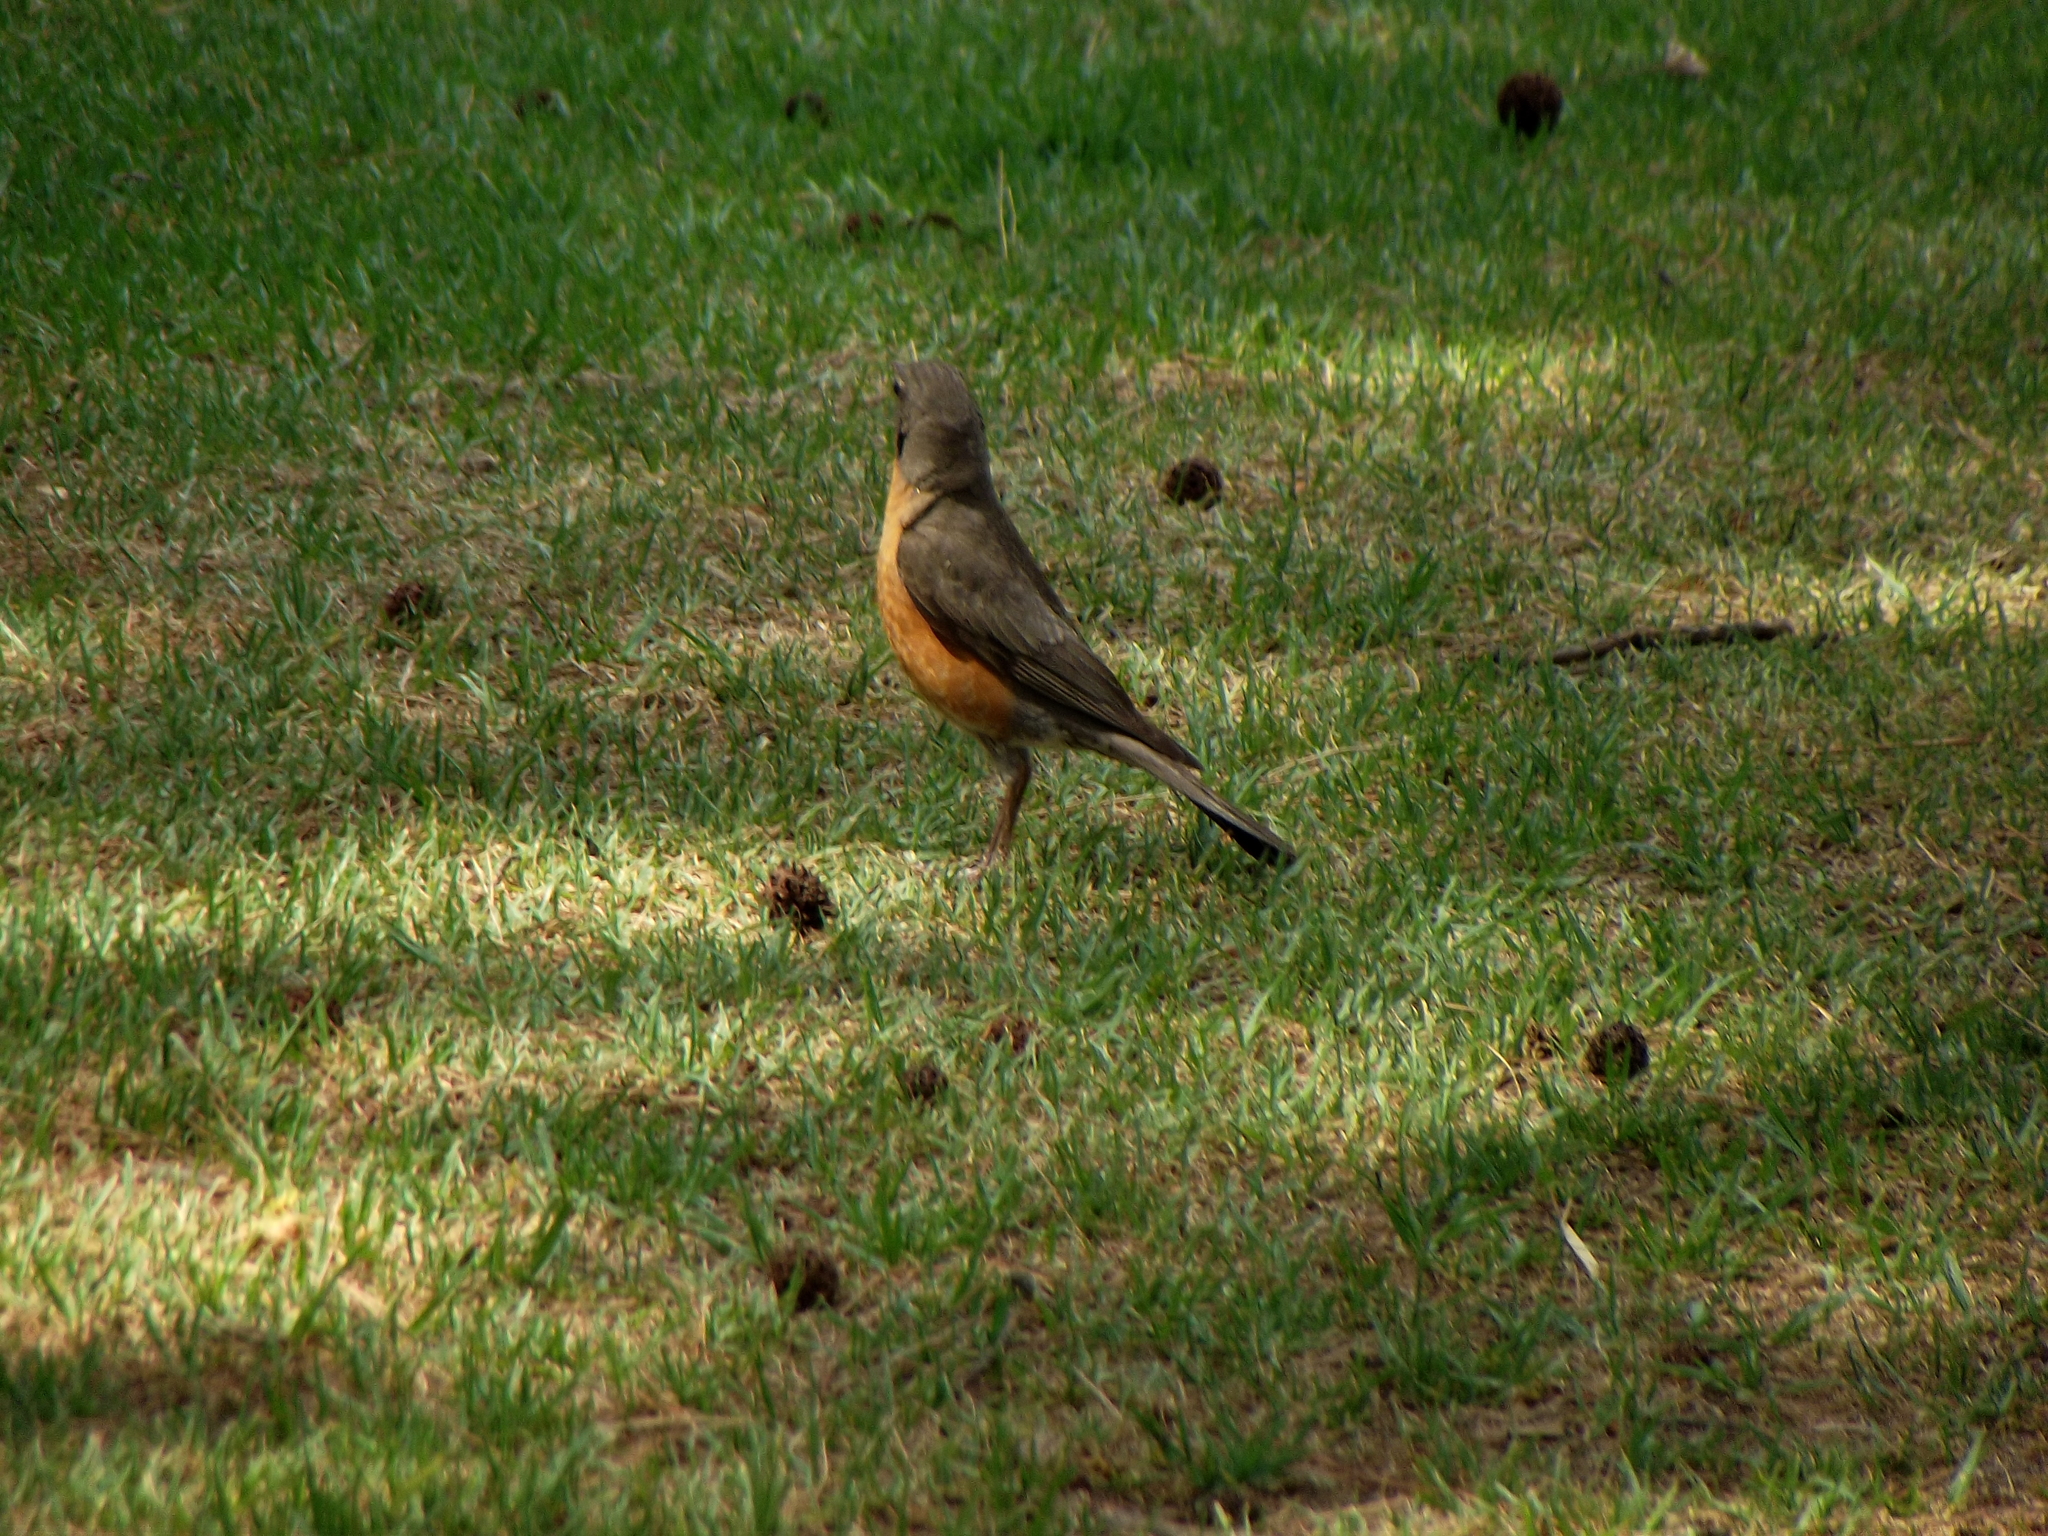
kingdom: Animalia
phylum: Chordata
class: Aves
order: Passeriformes
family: Turdidae
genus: Turdus
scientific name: Turdus migratorius
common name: American robin
